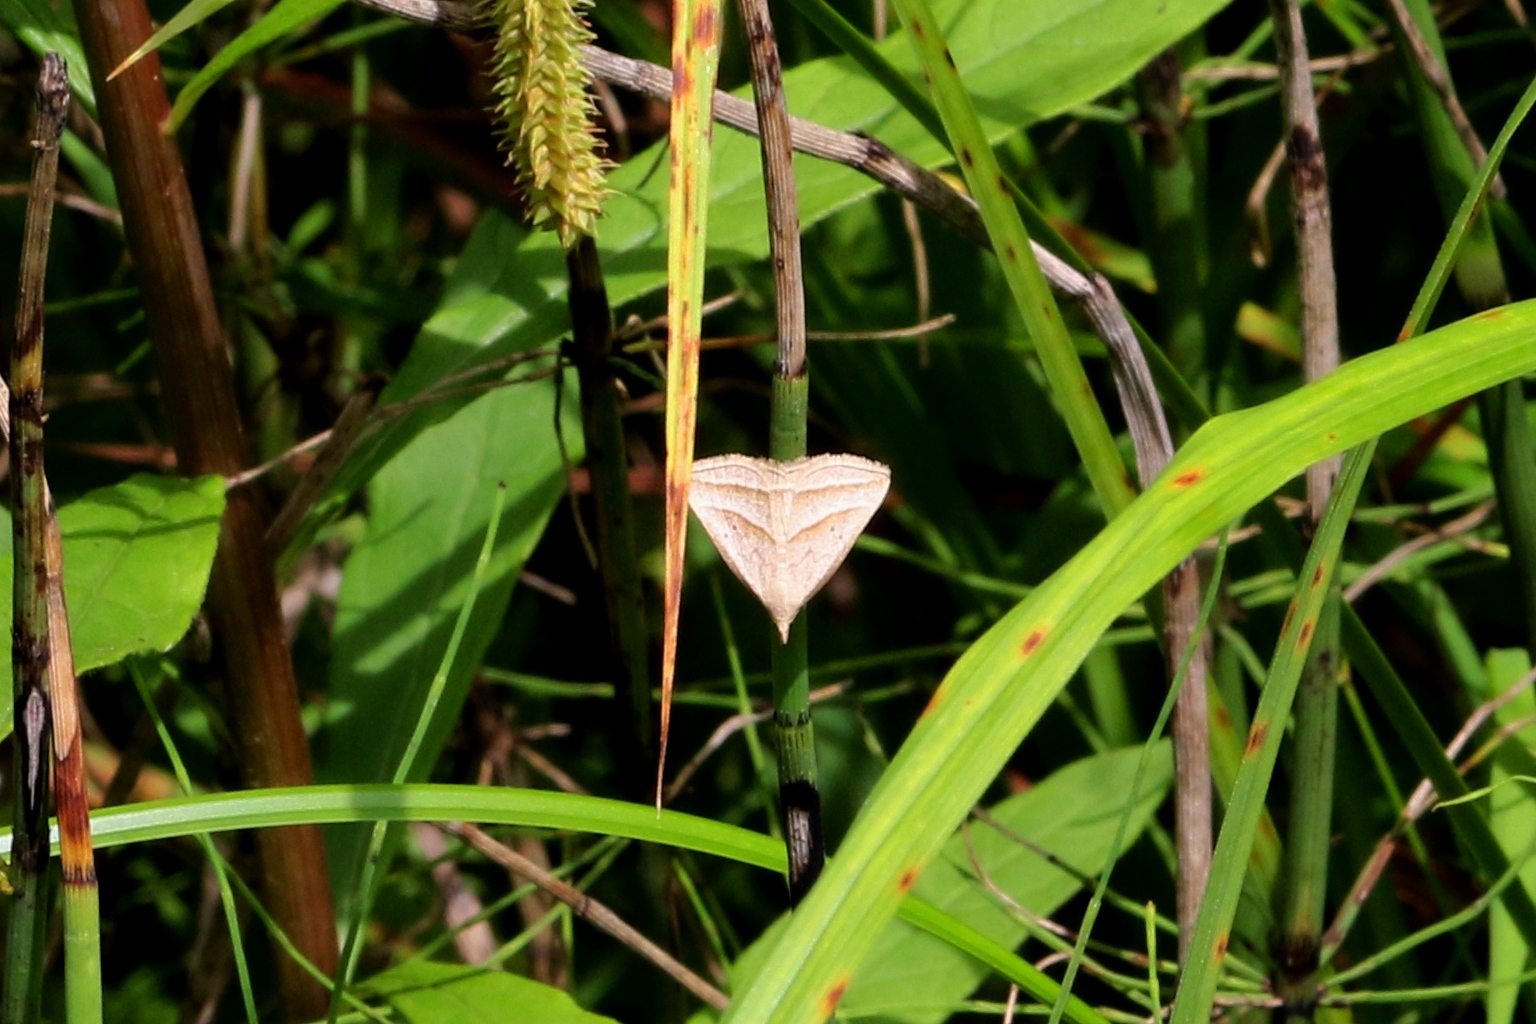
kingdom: Animalia
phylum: Arthropoda
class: Insecta
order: Lepidoptera
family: Erebidae
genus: Macrochilo
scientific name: Macrochilo absorptalis
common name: Slant-lined owlet
